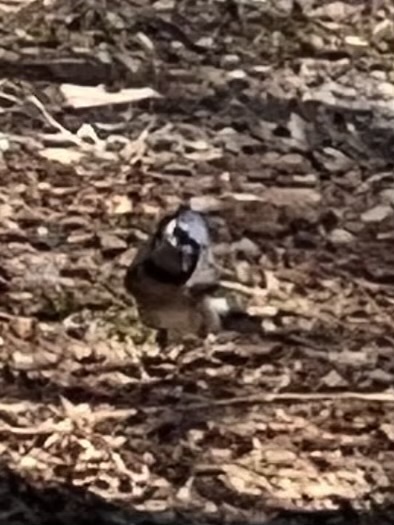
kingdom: Animalia
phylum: Chordata
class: Aves
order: Passeriformes
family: Corvidae
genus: Cyanocitta
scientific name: Cyanocitta cristata
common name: Blue jay
